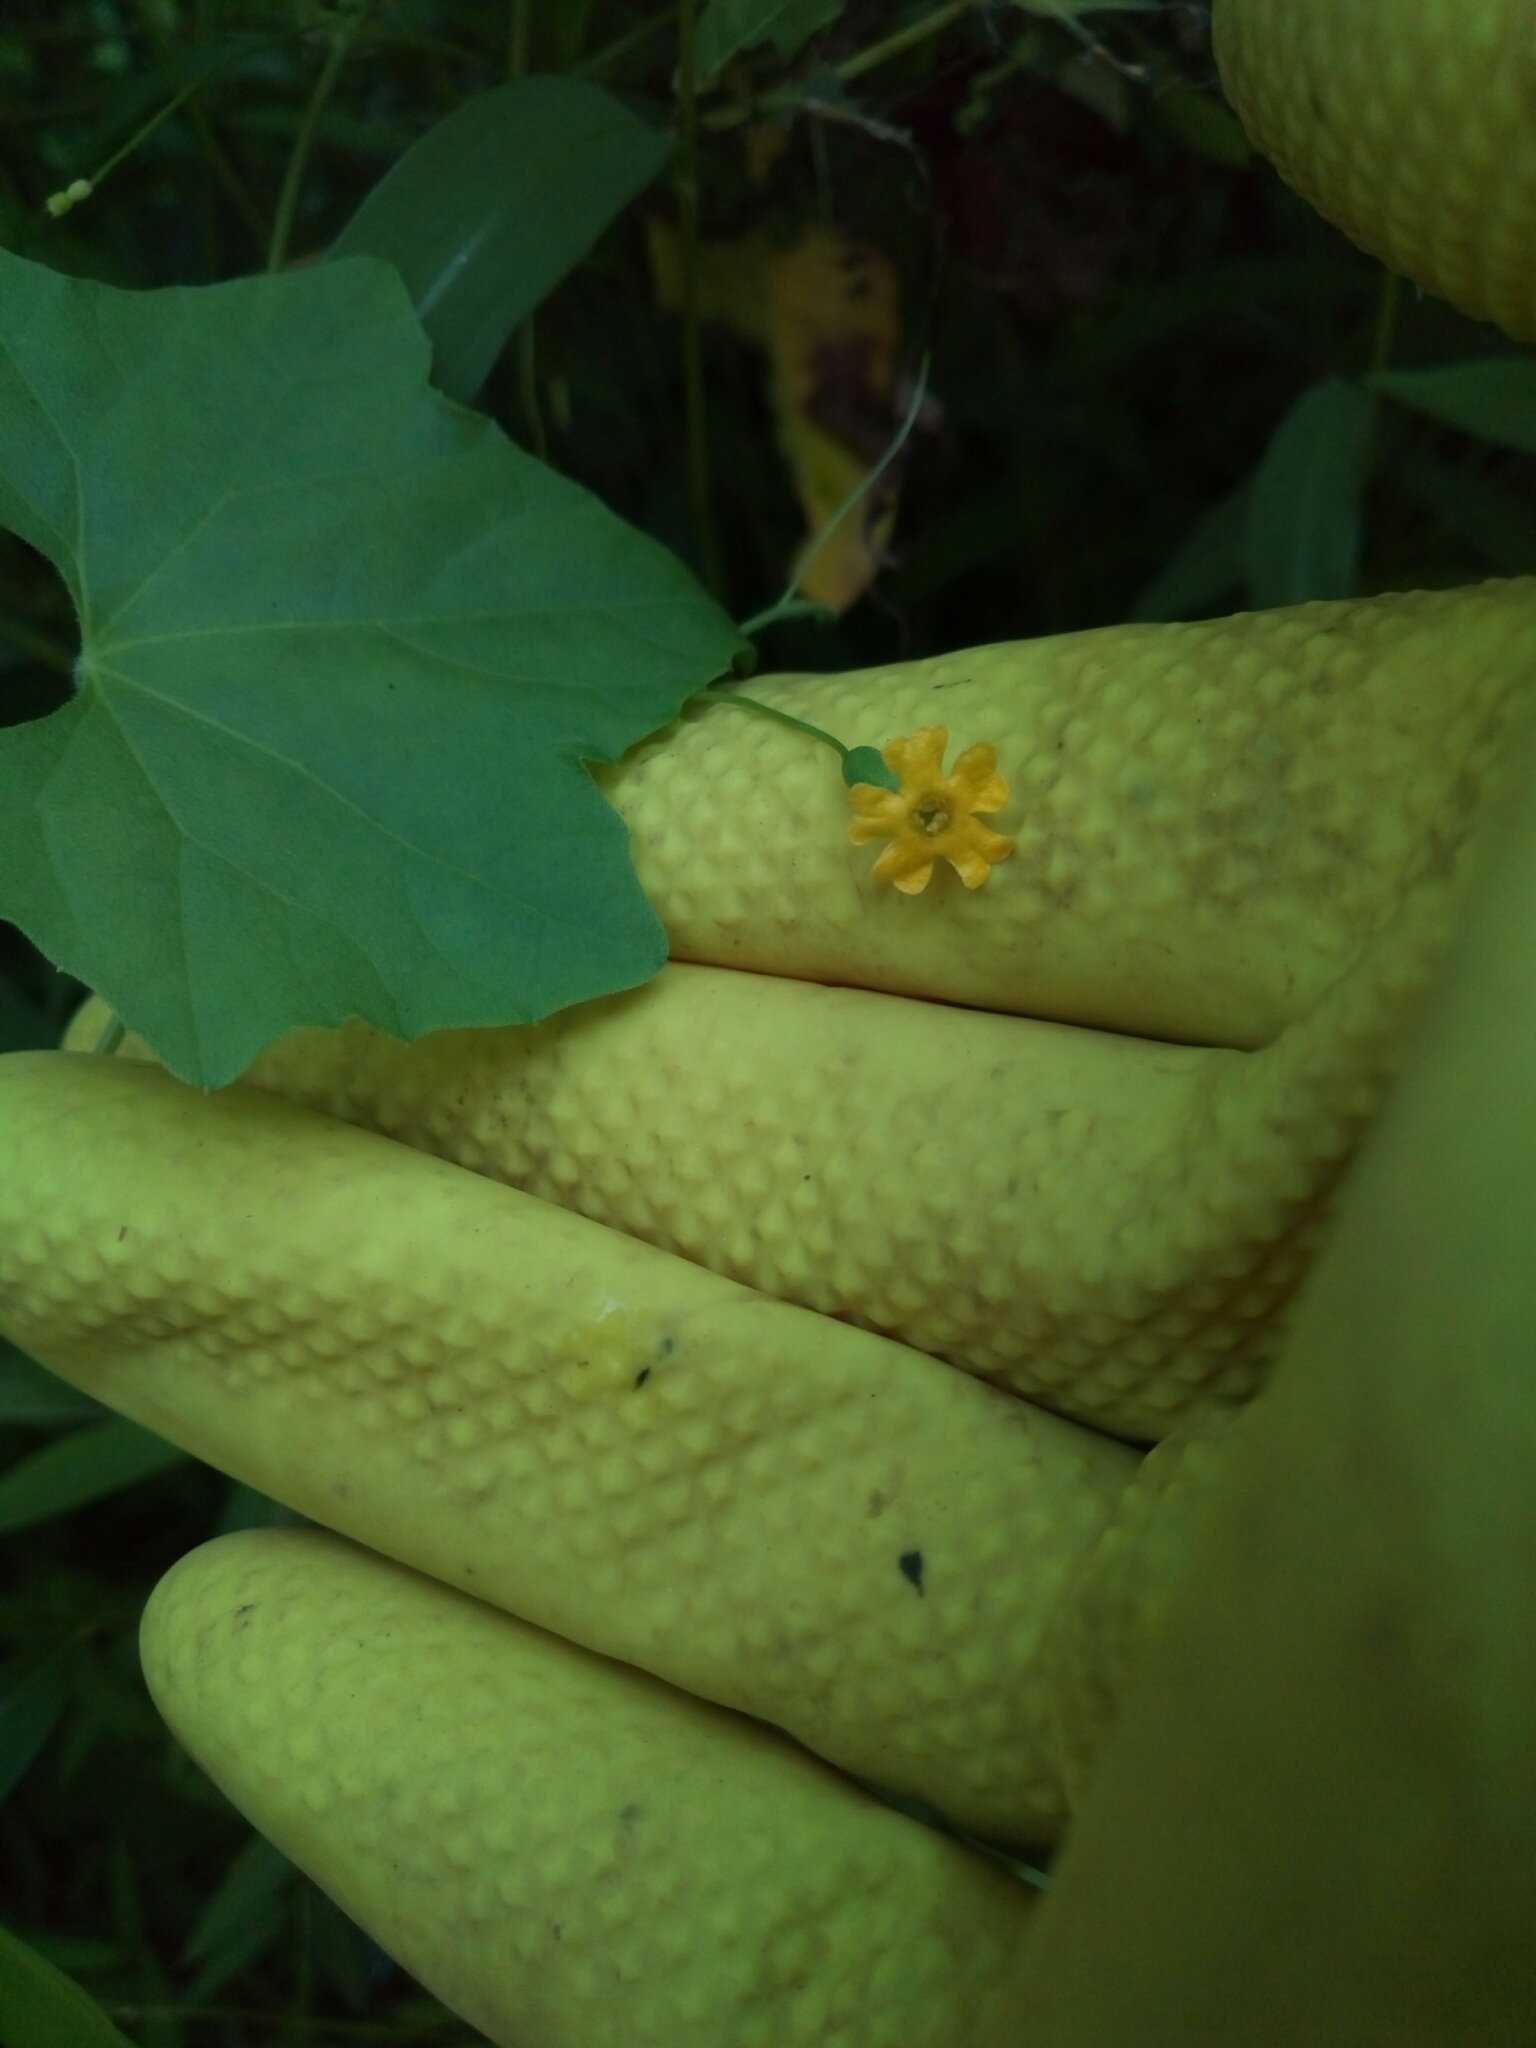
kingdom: Plantae
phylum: Tracheophyta
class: Magnoliopsida
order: Cucurbitales
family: Cucurbitaceae
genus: Melothria
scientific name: Melothria pendula
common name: Creeping-cucumber
